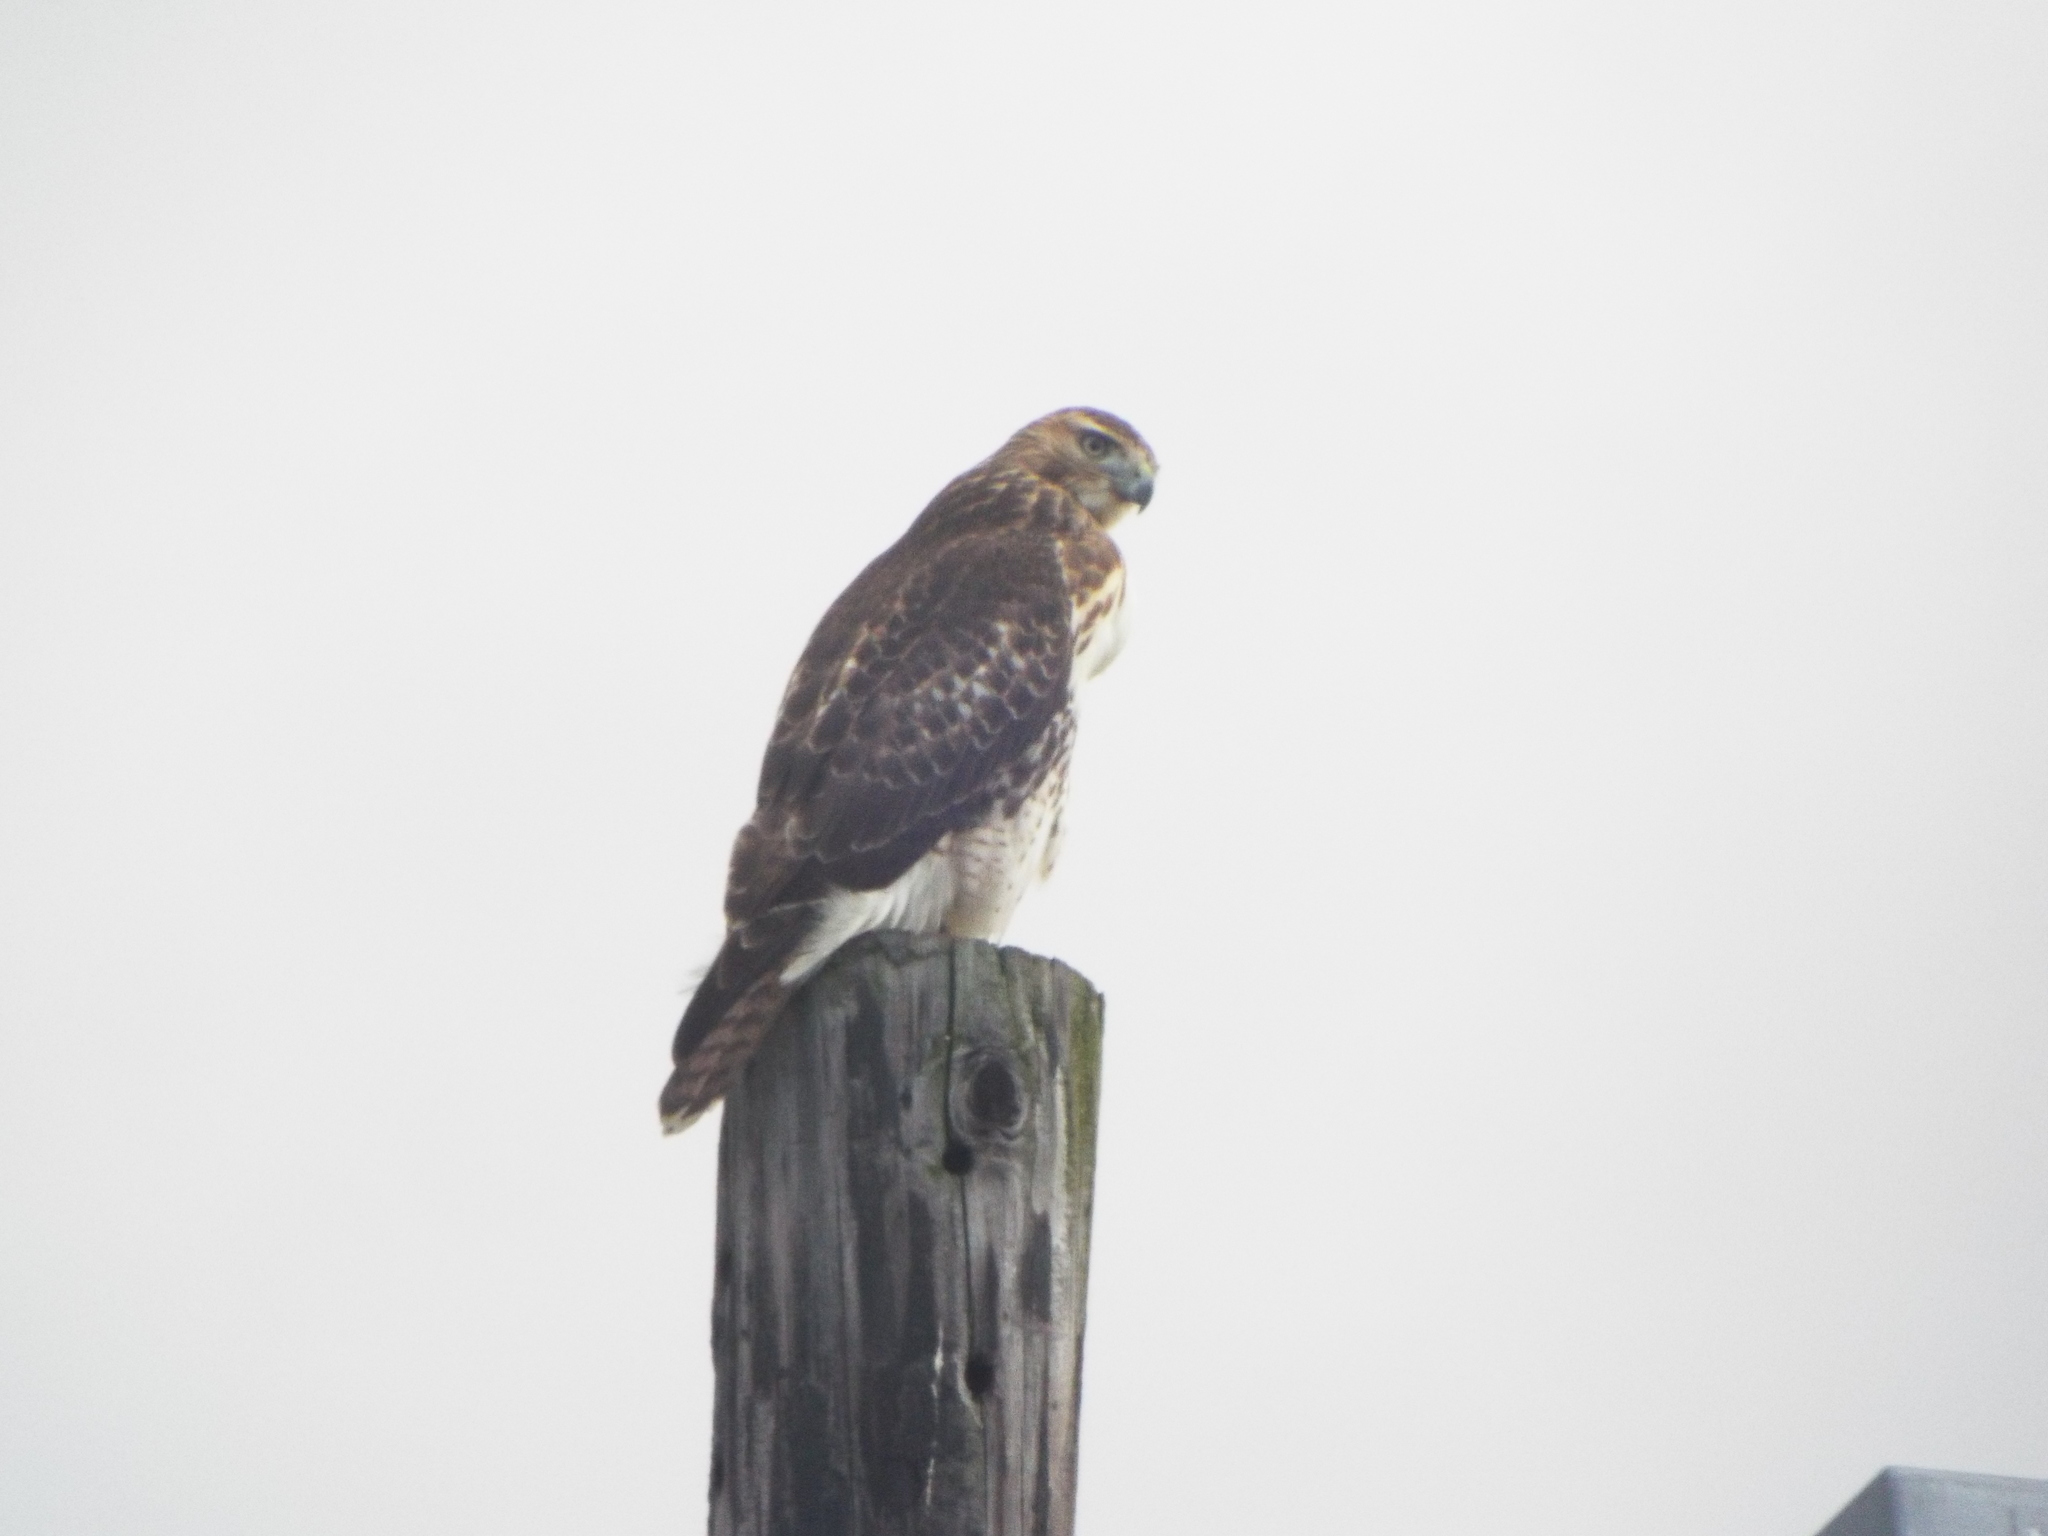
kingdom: Animalia
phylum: Chordata
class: Aves
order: Accipitriformes
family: Accipitridae
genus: Buteo
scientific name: Buteo jamaicensis
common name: Red-tailed hawk
